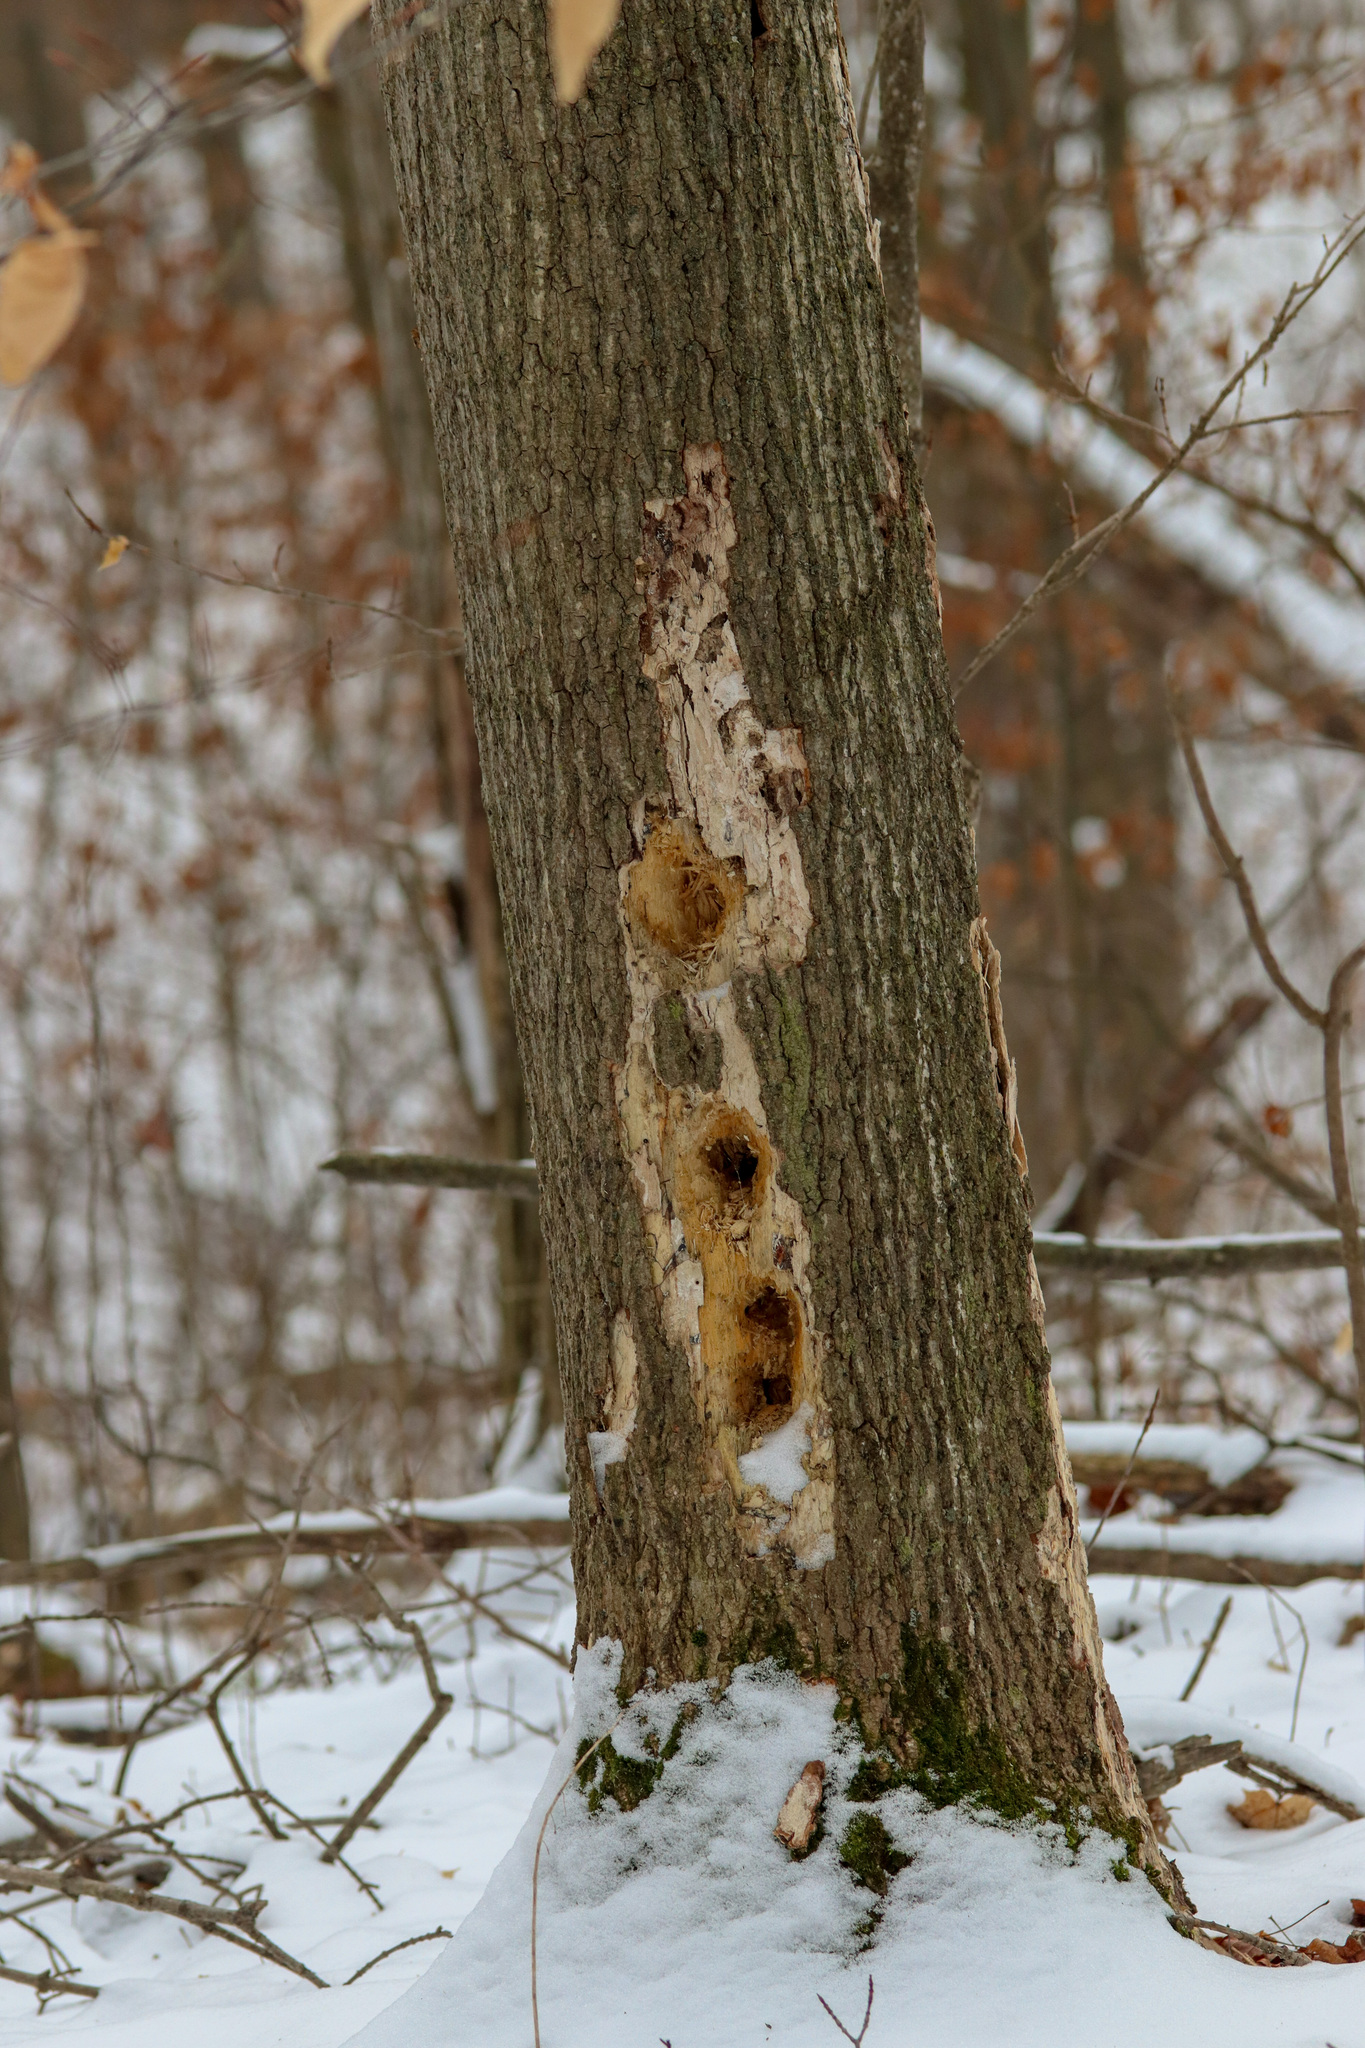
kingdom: Animalia
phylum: Chordata
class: Aves
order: Piciformes
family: Picidae
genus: Dryocopus
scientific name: Dryocopus pileatus
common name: Pileated woodpecker
